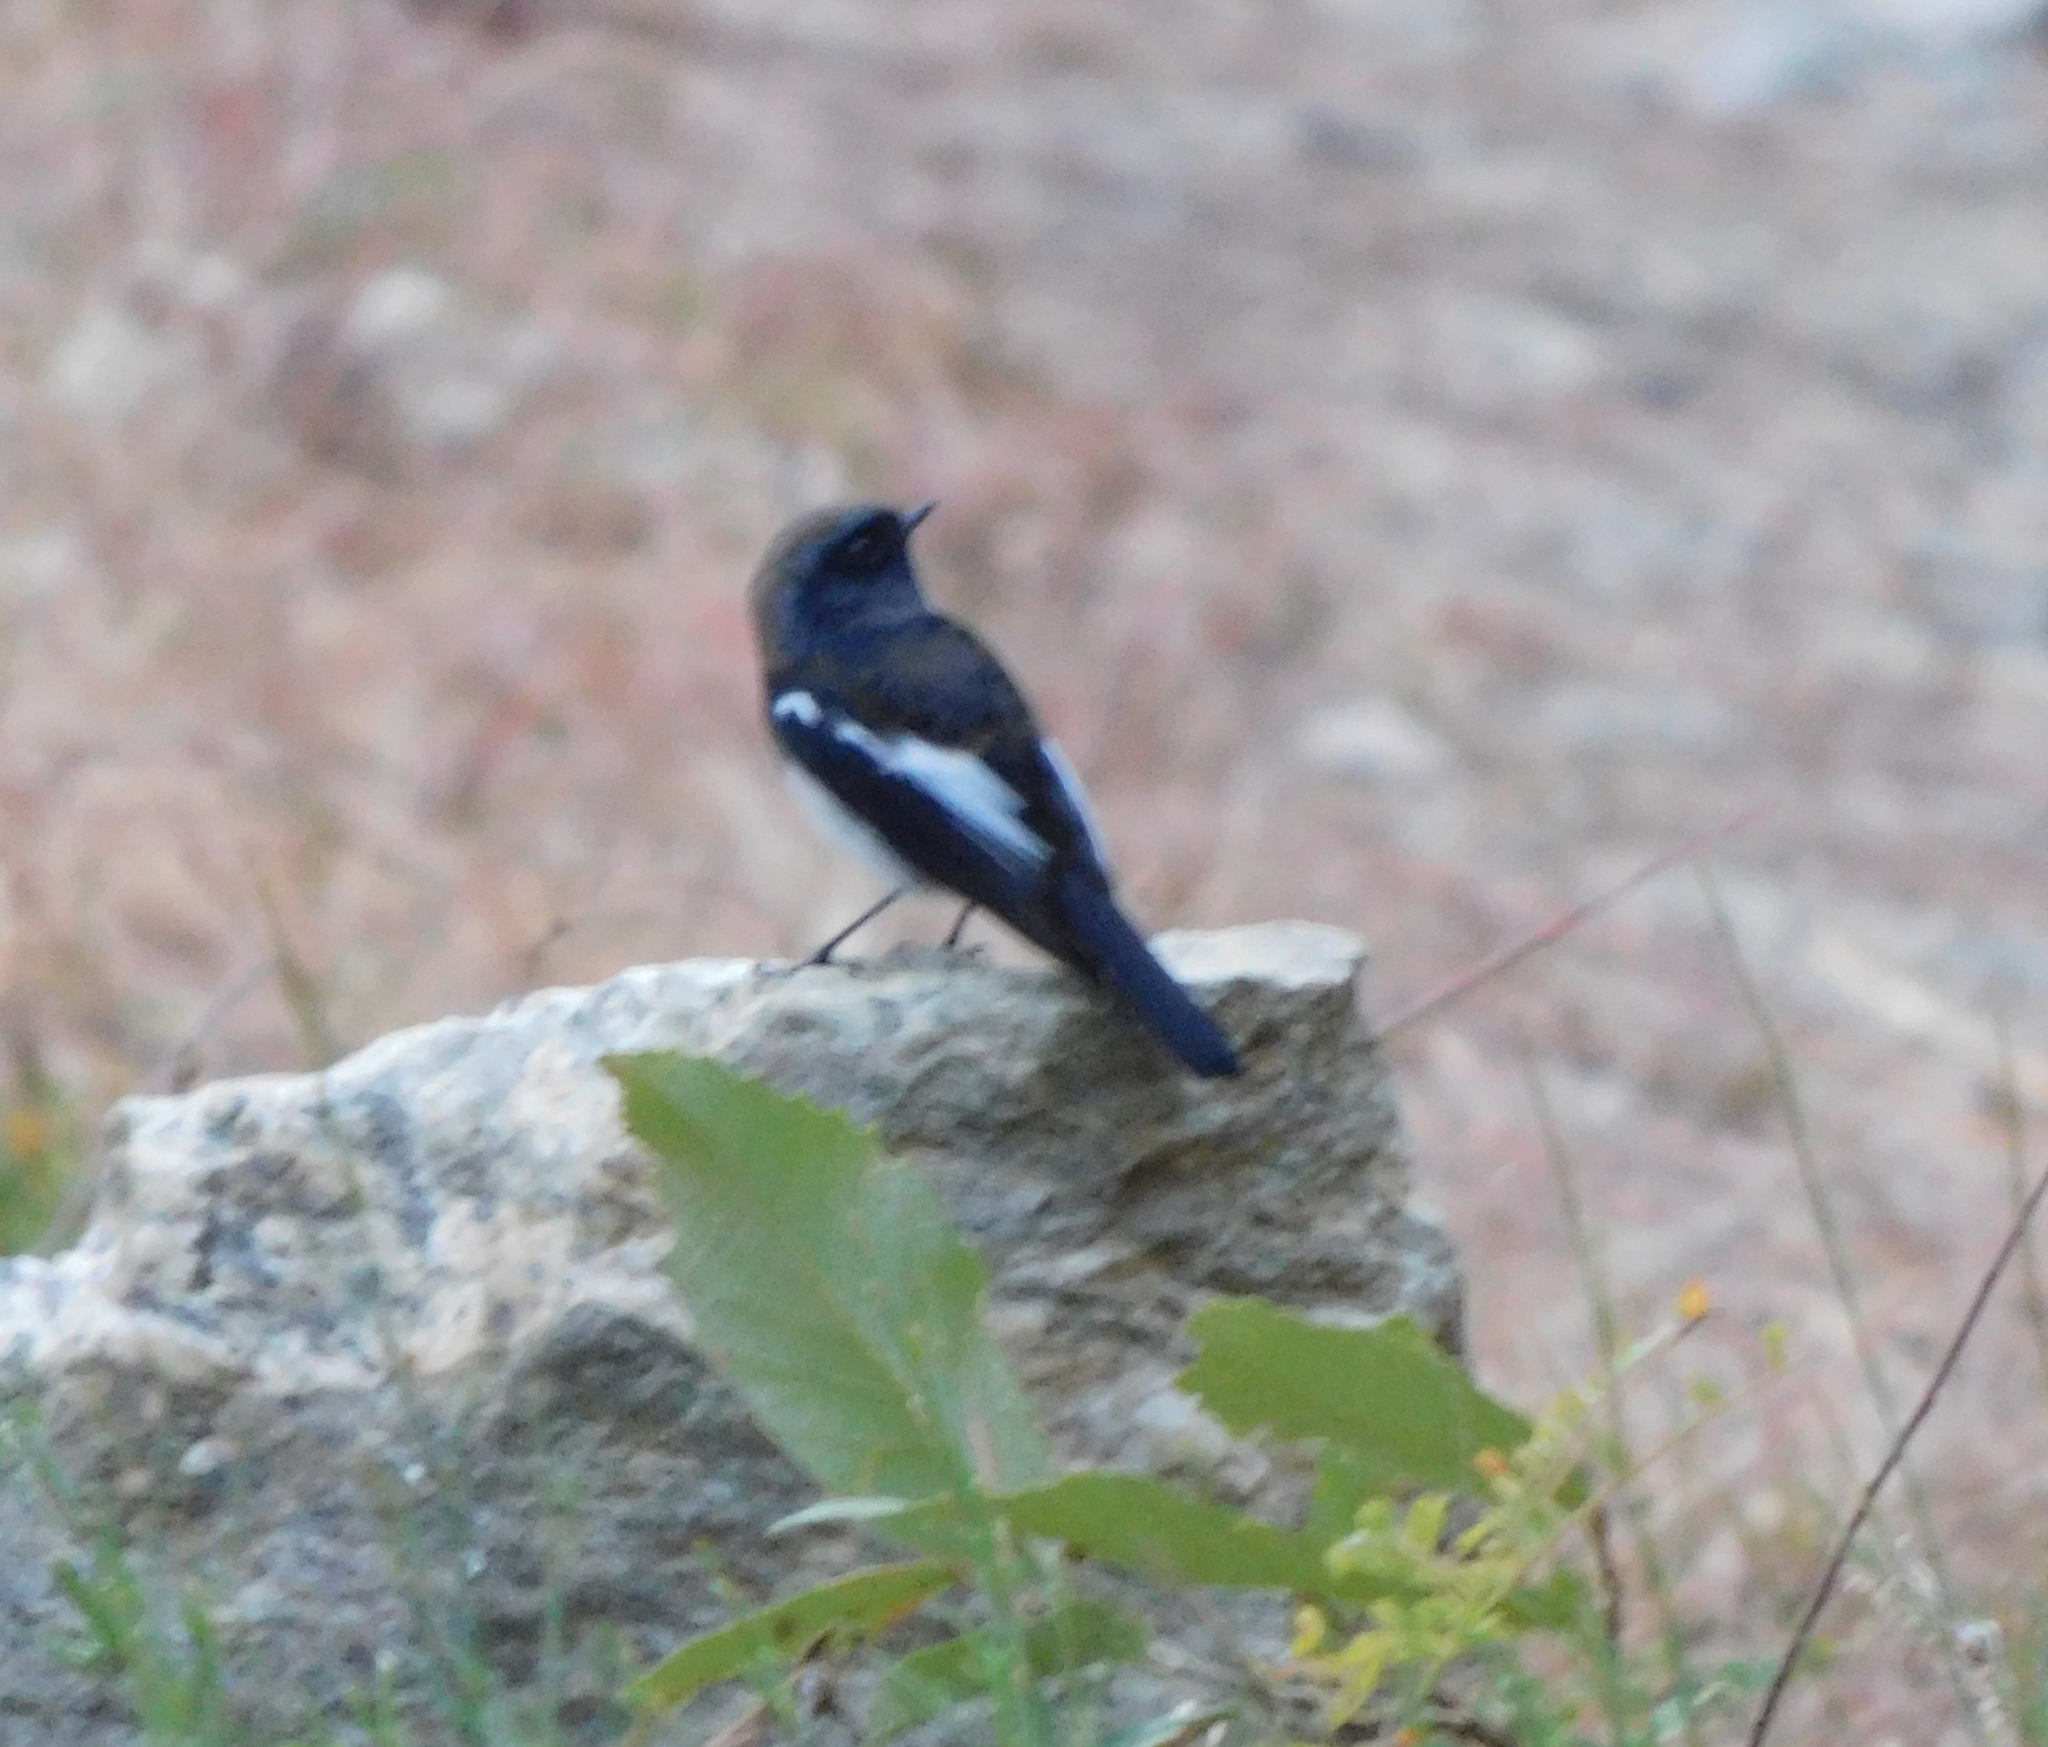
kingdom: Animalia
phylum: Chordata
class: Aves
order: Passeriformes
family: Muscicapidae
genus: Phoenicurus
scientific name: Phoenicurus coeruleocephala
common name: Blue-capped redstart
